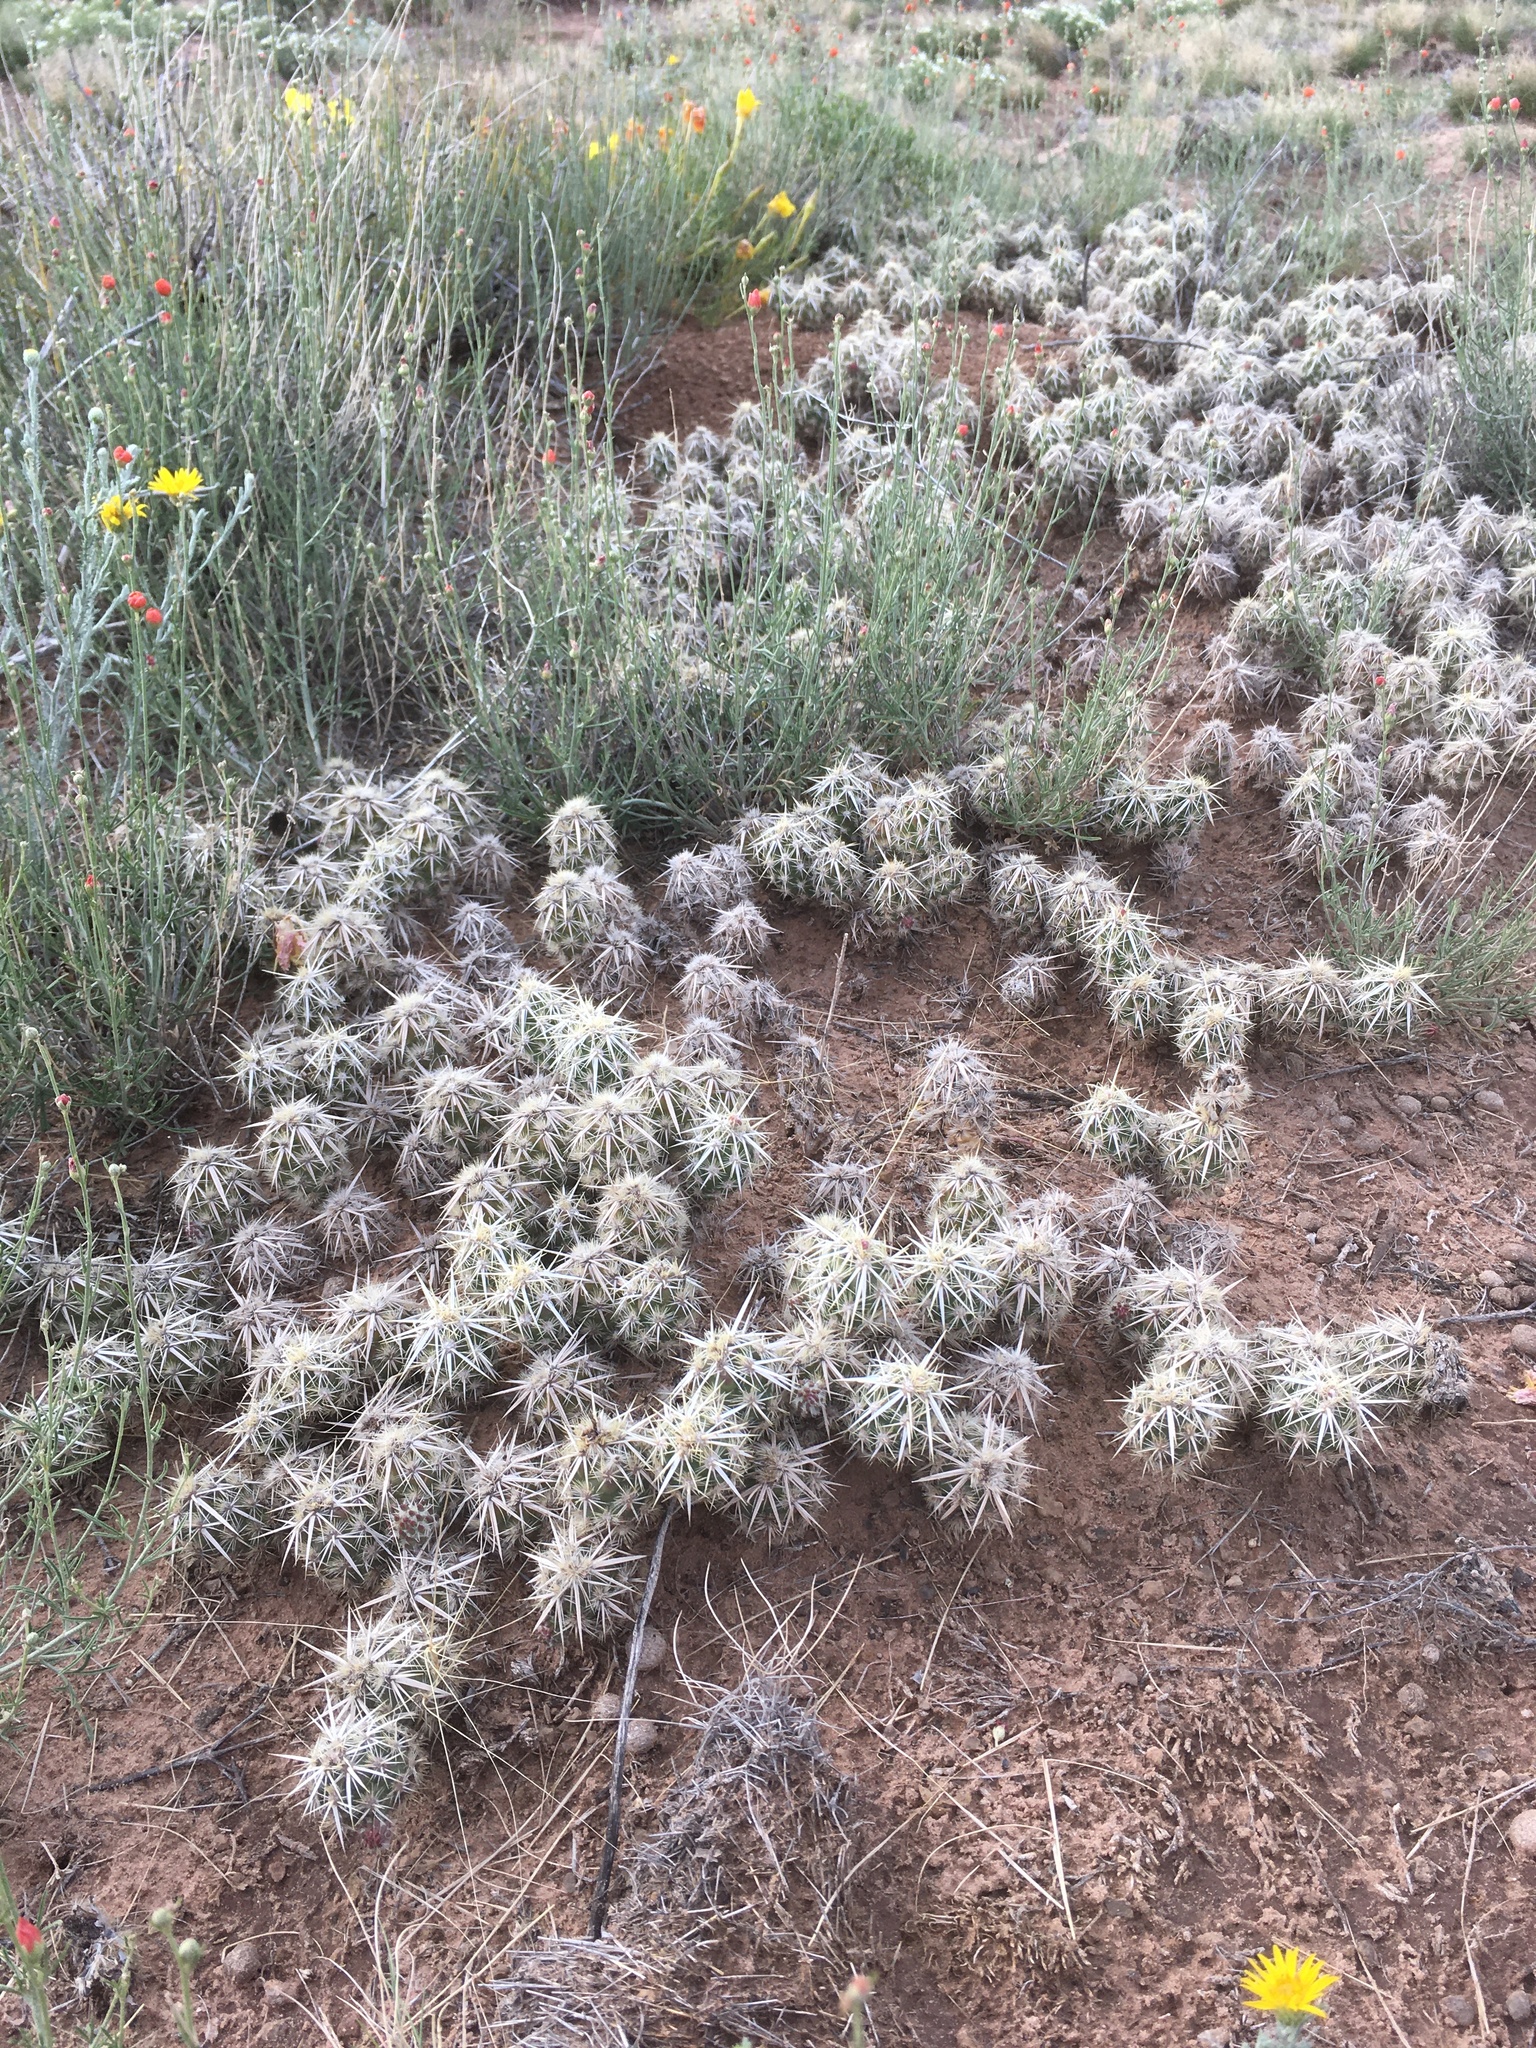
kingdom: Plantae
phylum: Tracheophyta
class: Magnoliopsida
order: Caryophyllales
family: Cactaceae
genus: Grusonia
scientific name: Grusonia clavata
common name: Club cholla
